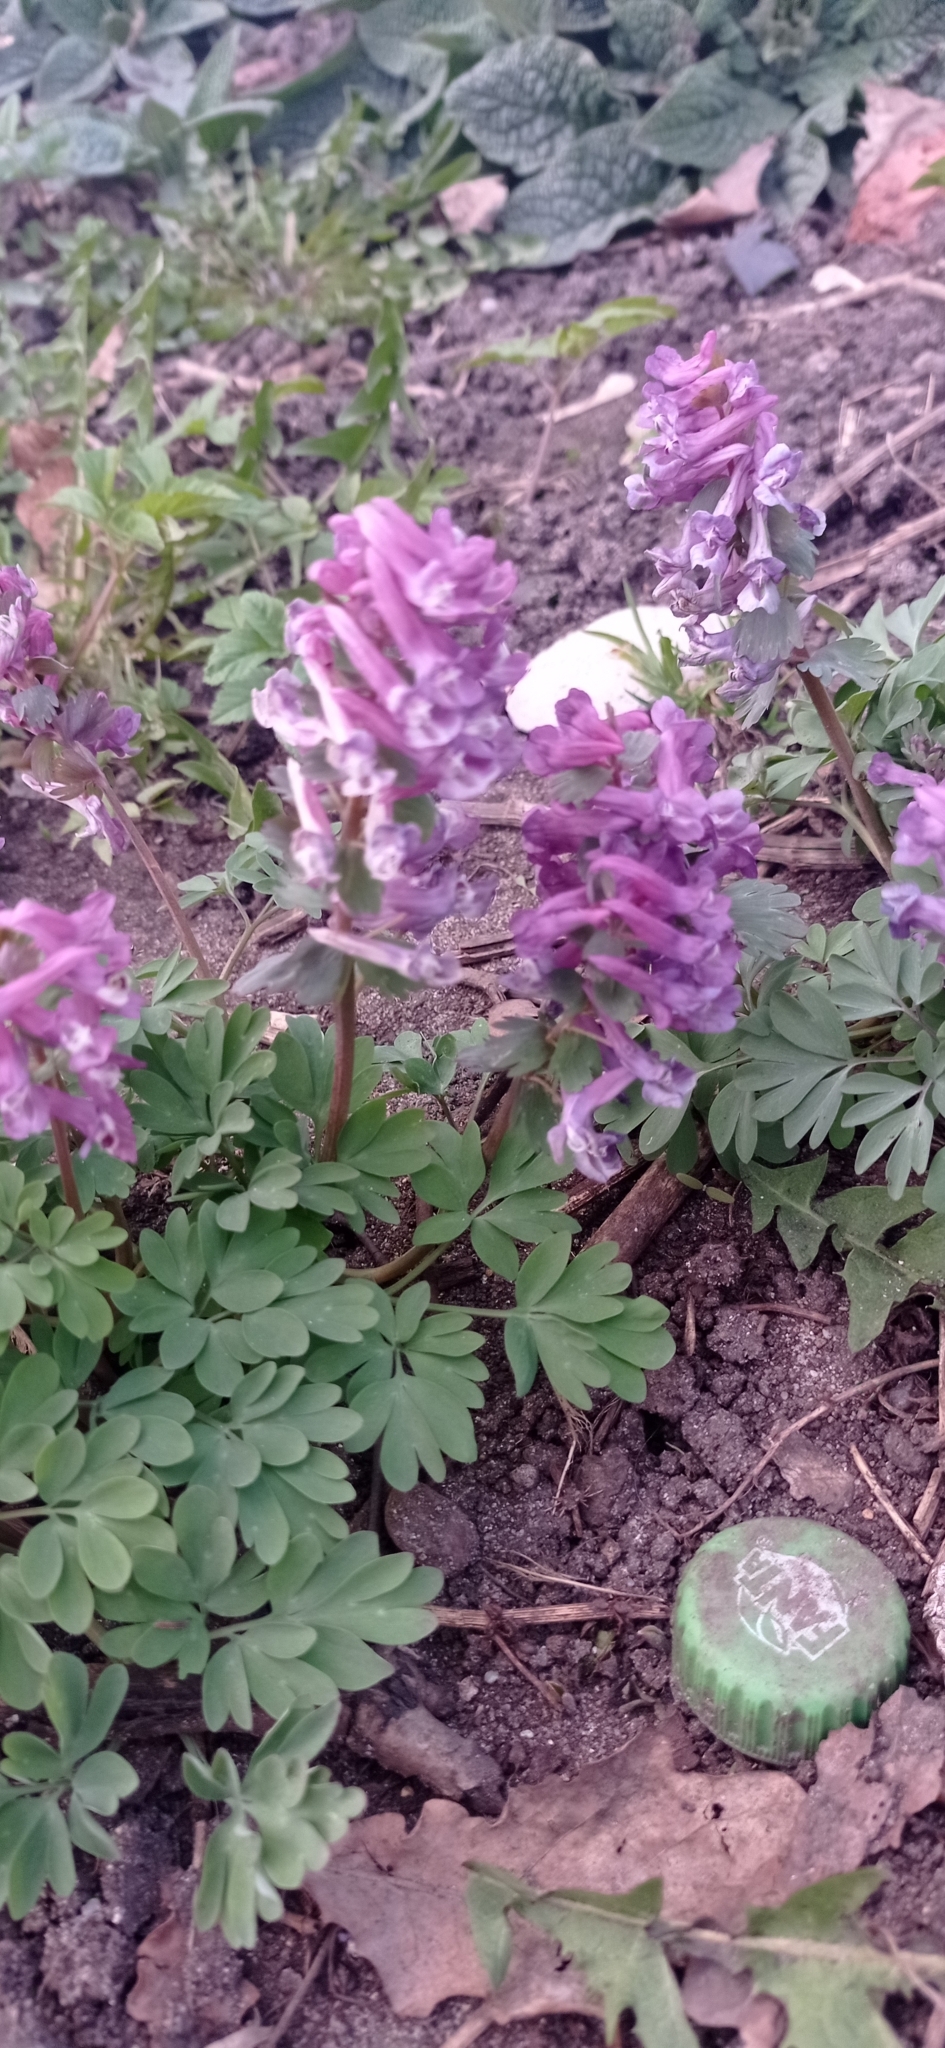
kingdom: Plantae
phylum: Tracheophyta
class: Magnoliopsida
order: Ranunculales
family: Papaveraceae
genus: Corydalis
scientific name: Corydalis solida
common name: Bird-in-a-bush
